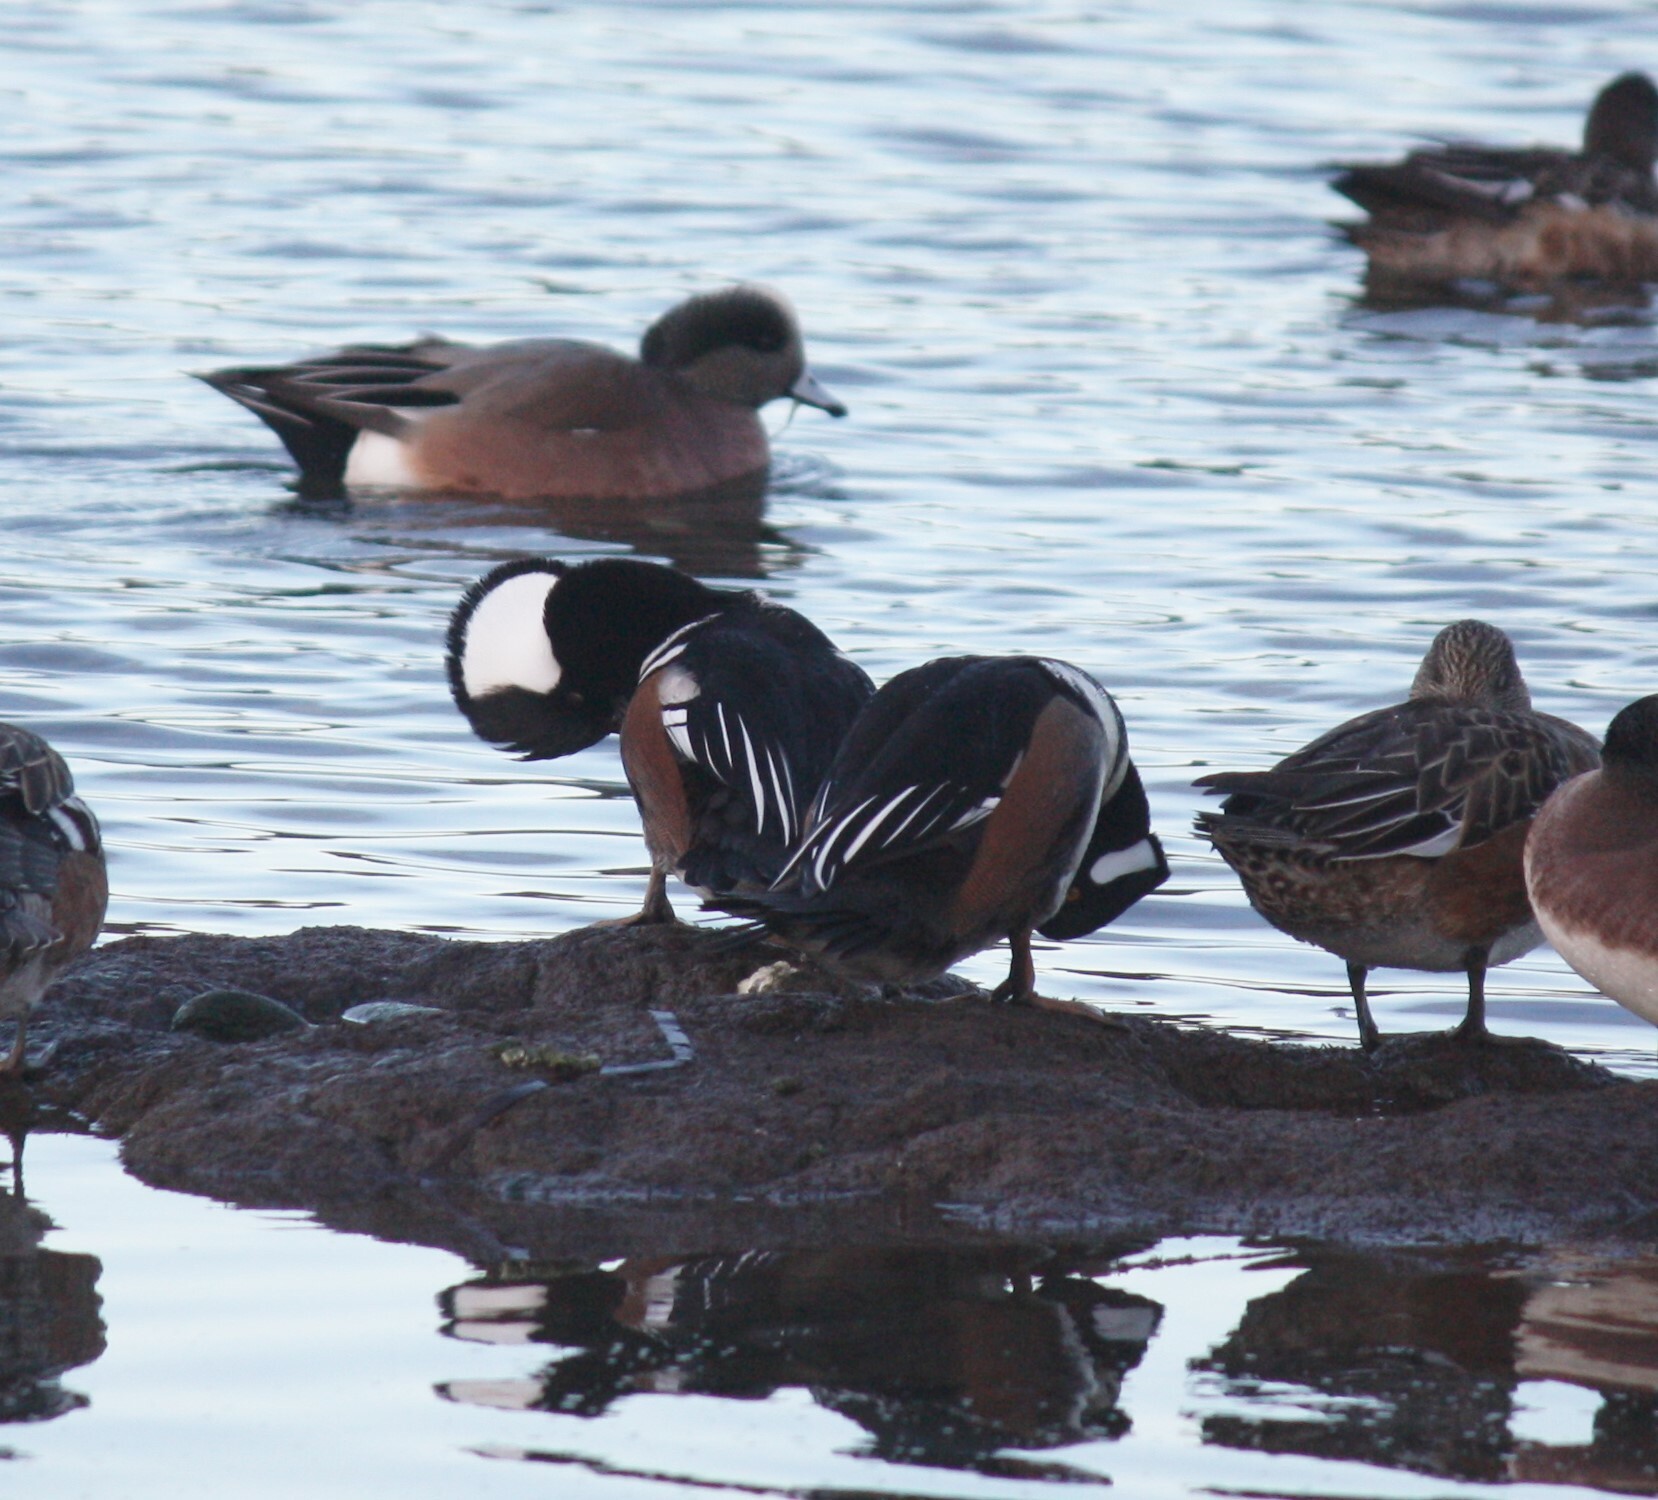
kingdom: Animalia
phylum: Chordata
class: Aves
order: Anseriformes
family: Anatidae
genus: Lophodytes
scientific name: Lophodytes cucullatus
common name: Hooded merganser
